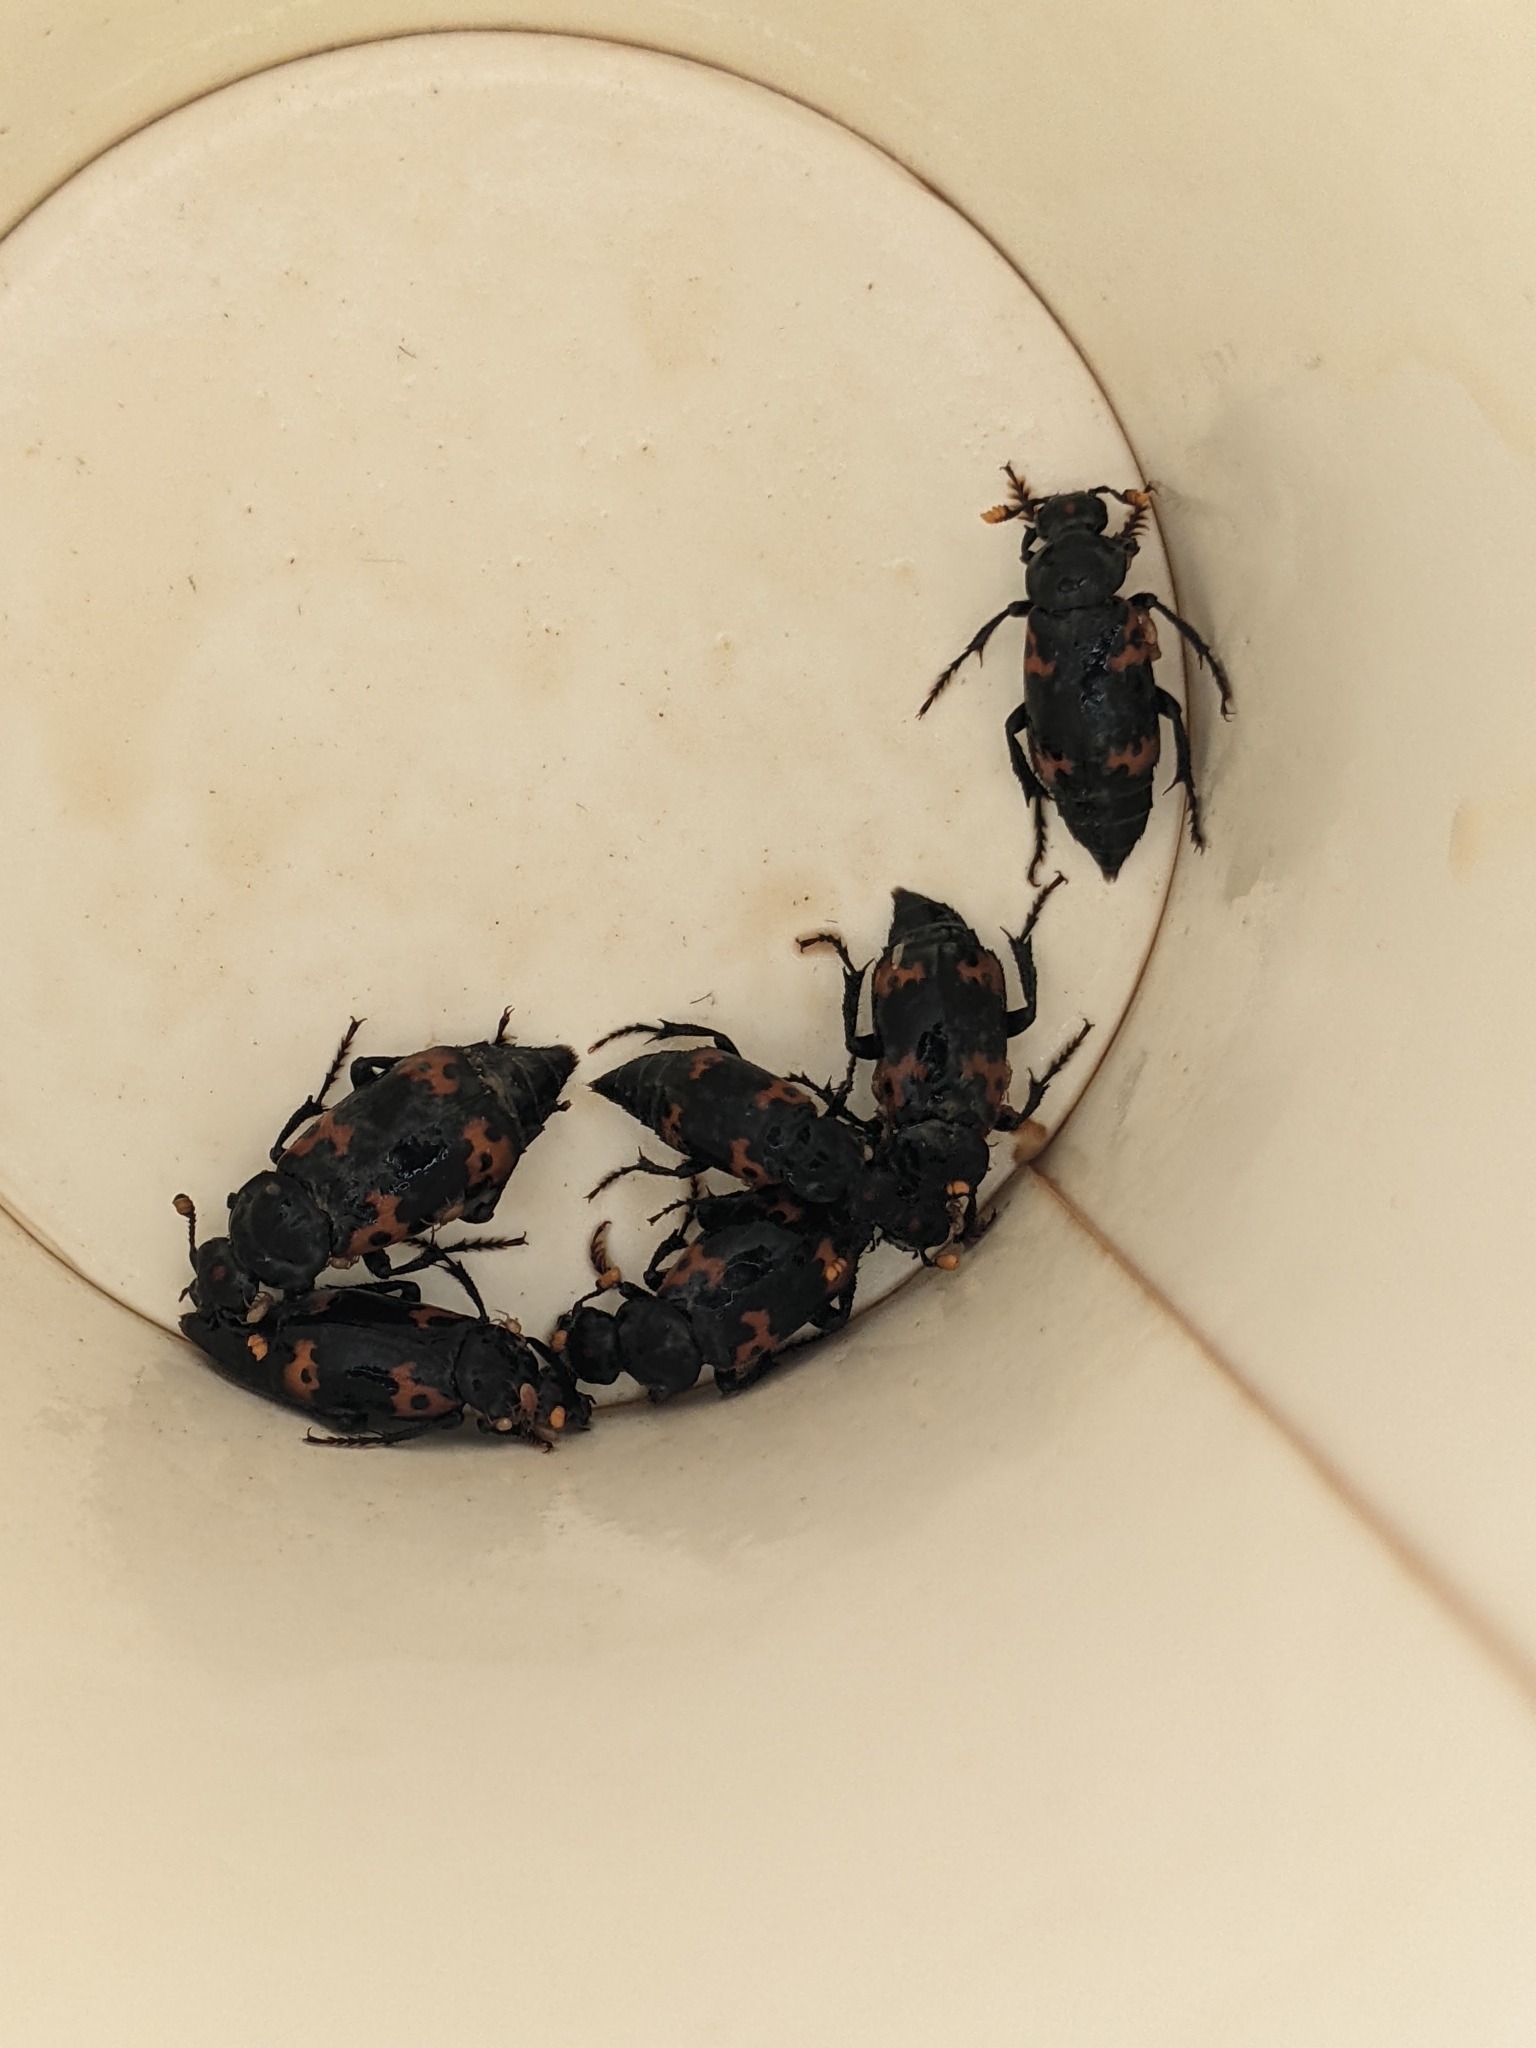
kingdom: Animalia
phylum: Arthropoda
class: Insecta
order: Coleoptera
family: Staphylinidae
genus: Nicrophorus
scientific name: Nicrophorus nepalensis
